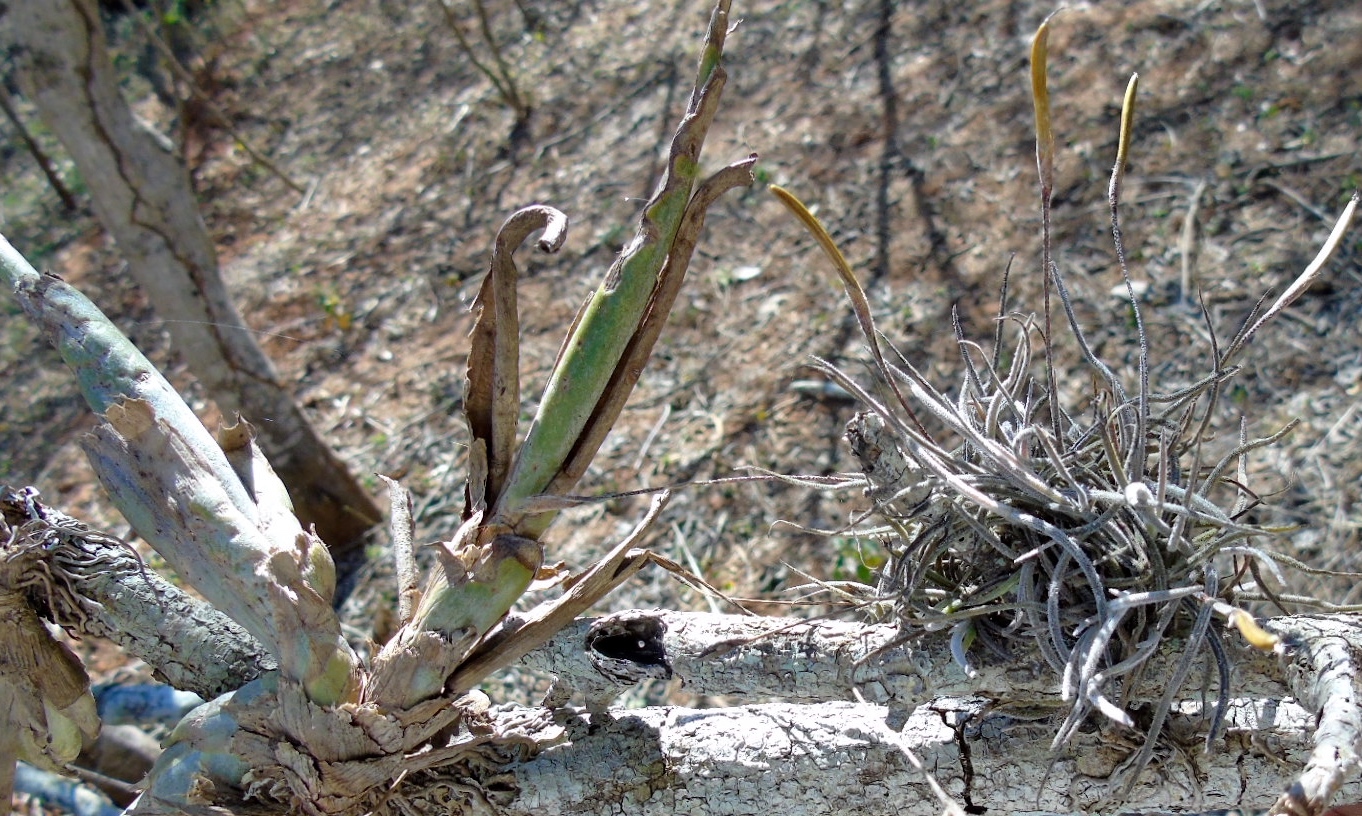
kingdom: Plantae
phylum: Tracheophyta
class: Liliopsida
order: Poales
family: Bromeliaceae
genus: Tillandsia
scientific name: Tillandsia recurvata
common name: Small ballmoss
